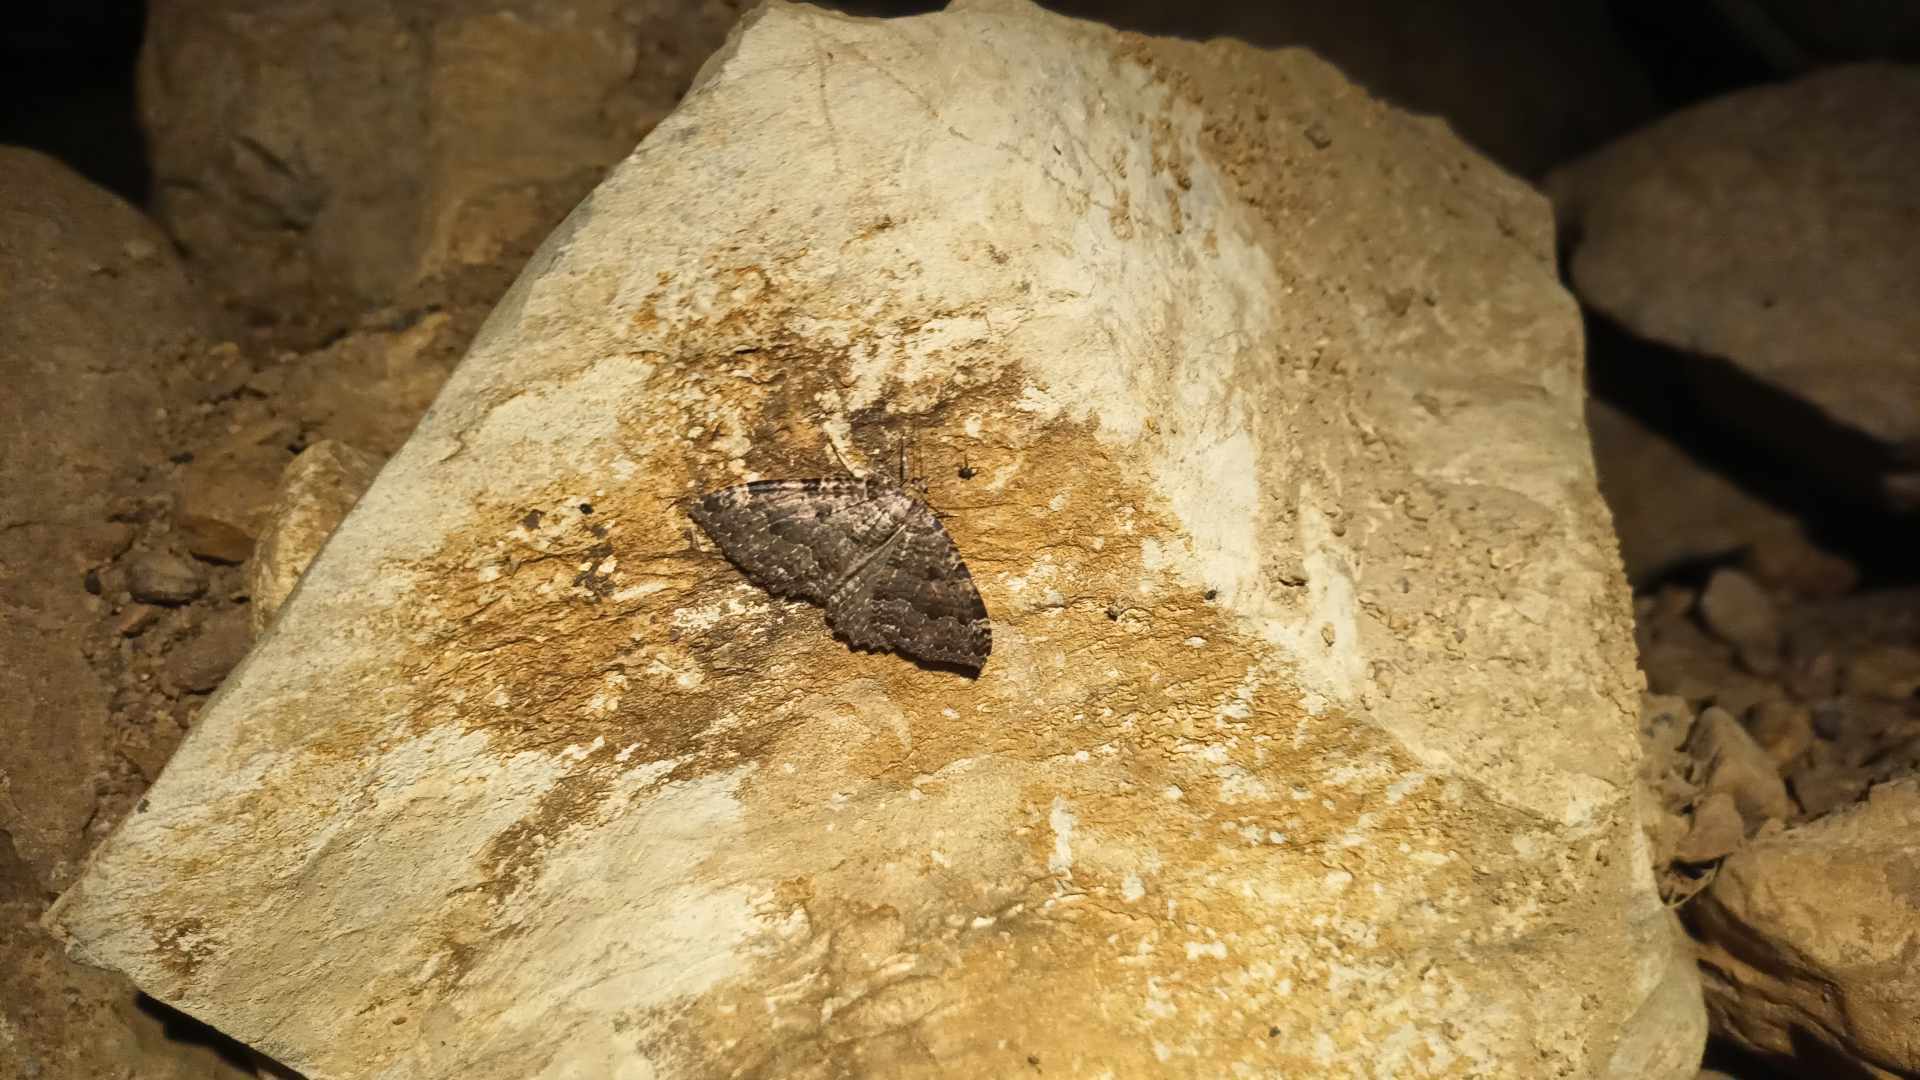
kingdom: Animalia
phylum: Arthropoda
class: Insecta
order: Lepidoptera
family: Geometridae
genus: Triphosa
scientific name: Triphosa dubitata
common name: Tissue
